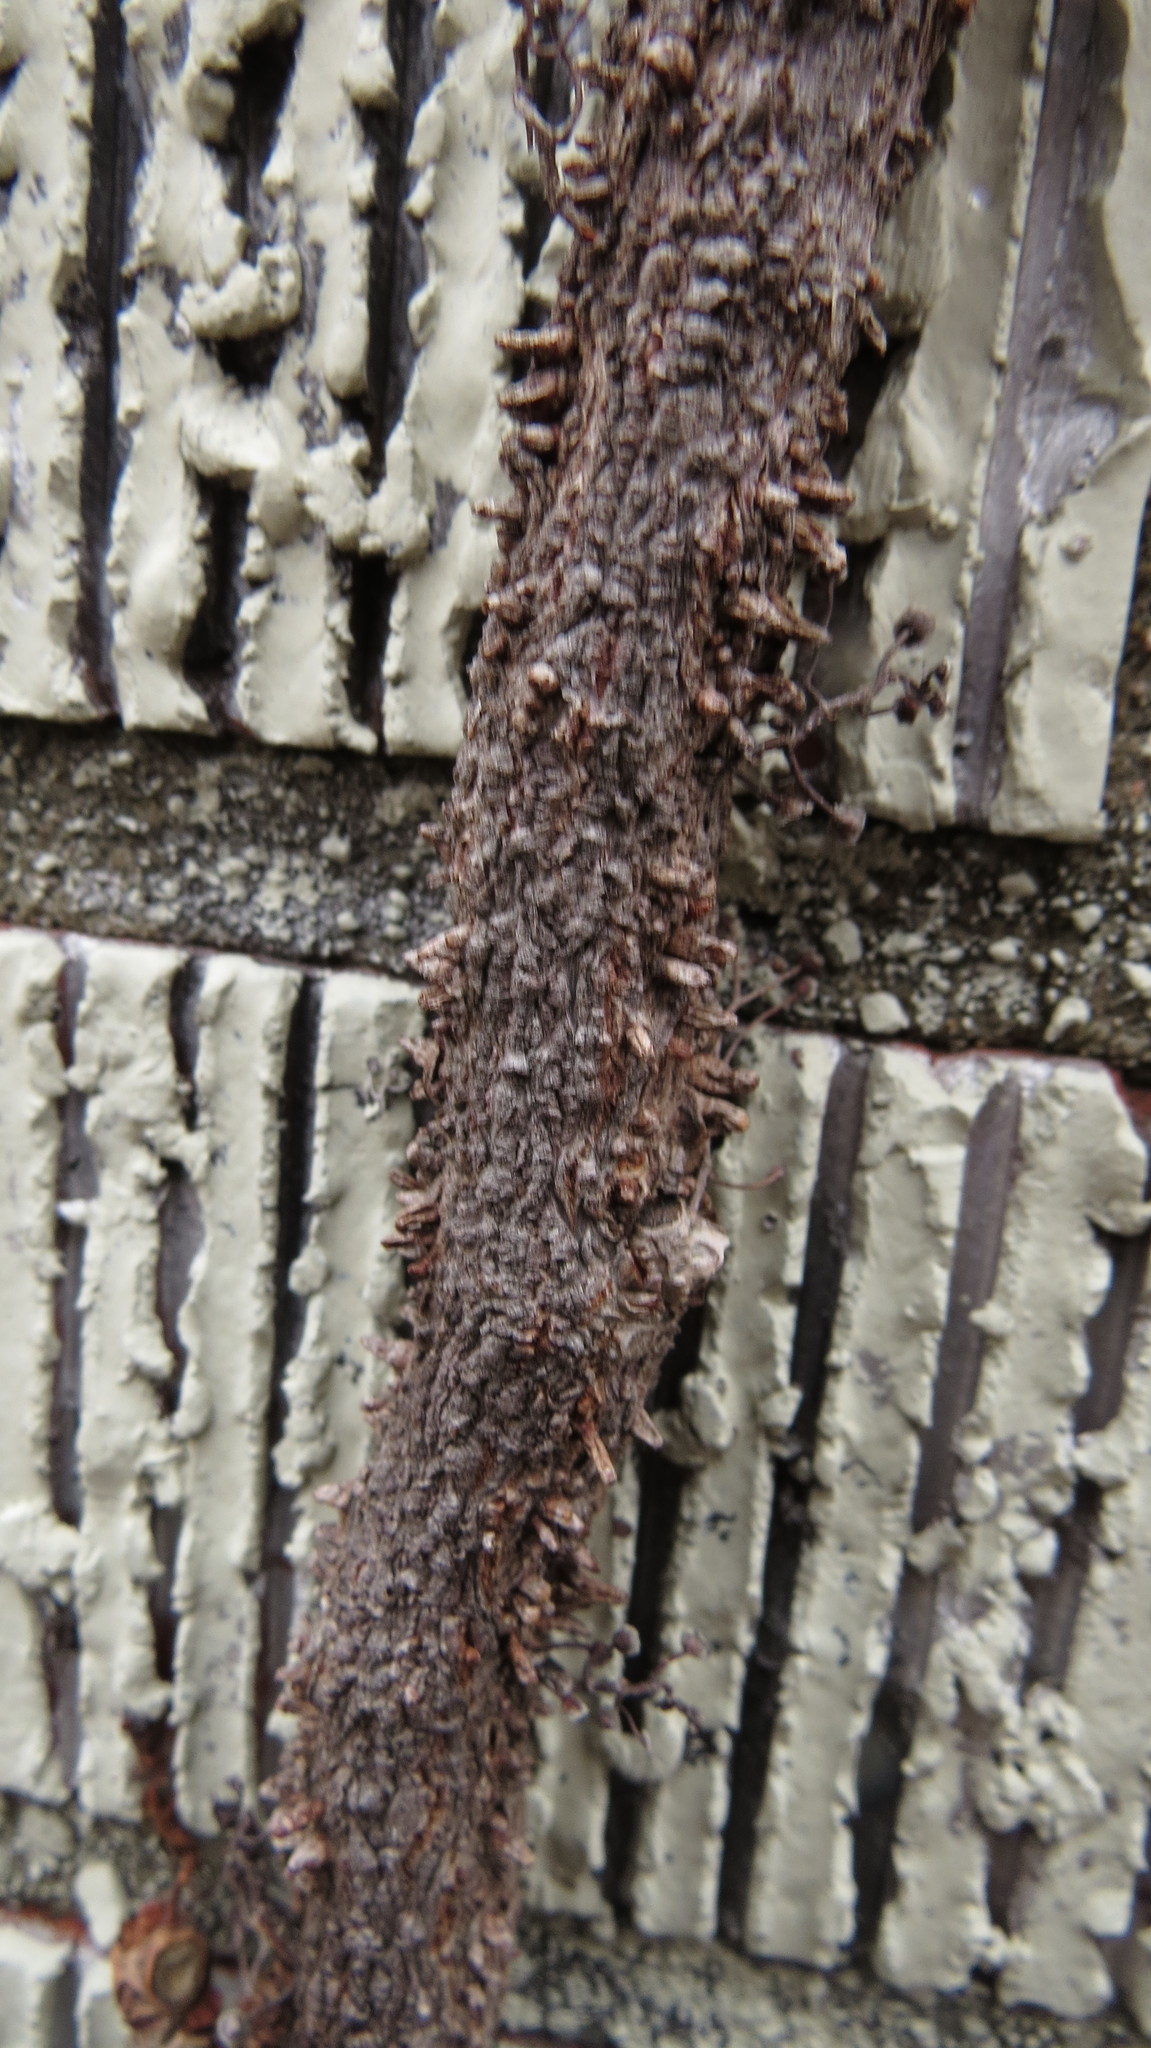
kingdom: Plantae
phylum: Tracheophyta
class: Magnoliopsida
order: Vitales
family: Vitaceae
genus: Parthenocissus
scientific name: Parthenocissus tricuspidata
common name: Boston ivy
